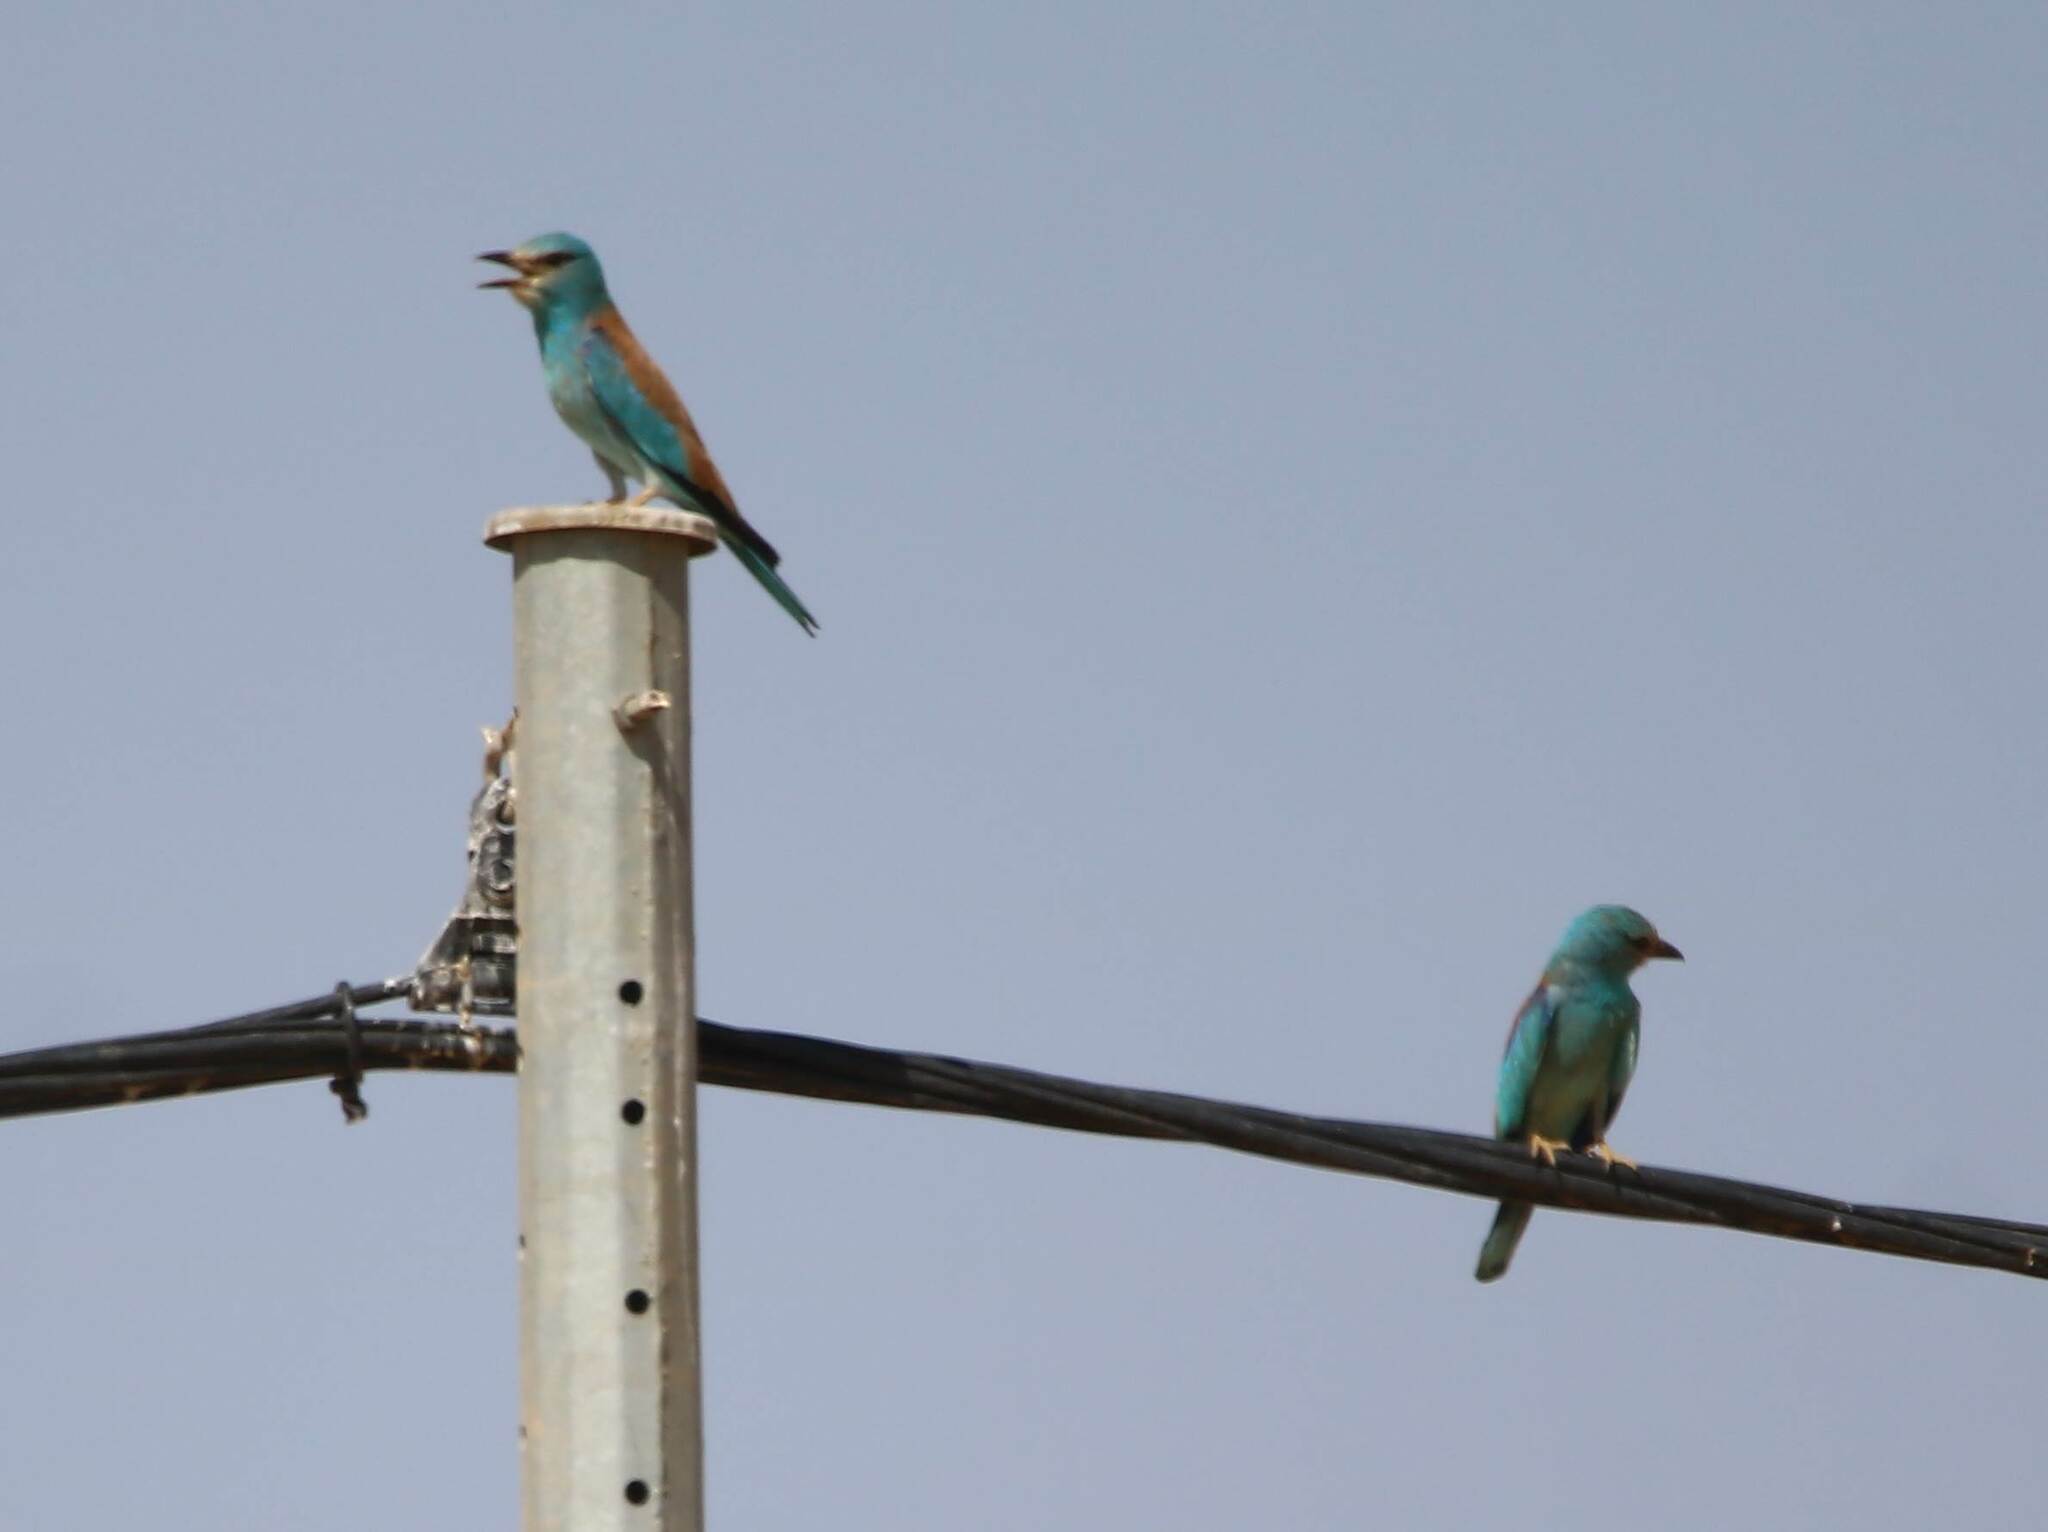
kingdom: Animalia
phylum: Chordata
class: Aves
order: Coraciiformes
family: Coraciidae
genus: Coracias
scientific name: Coracias garrulus
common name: European roller
